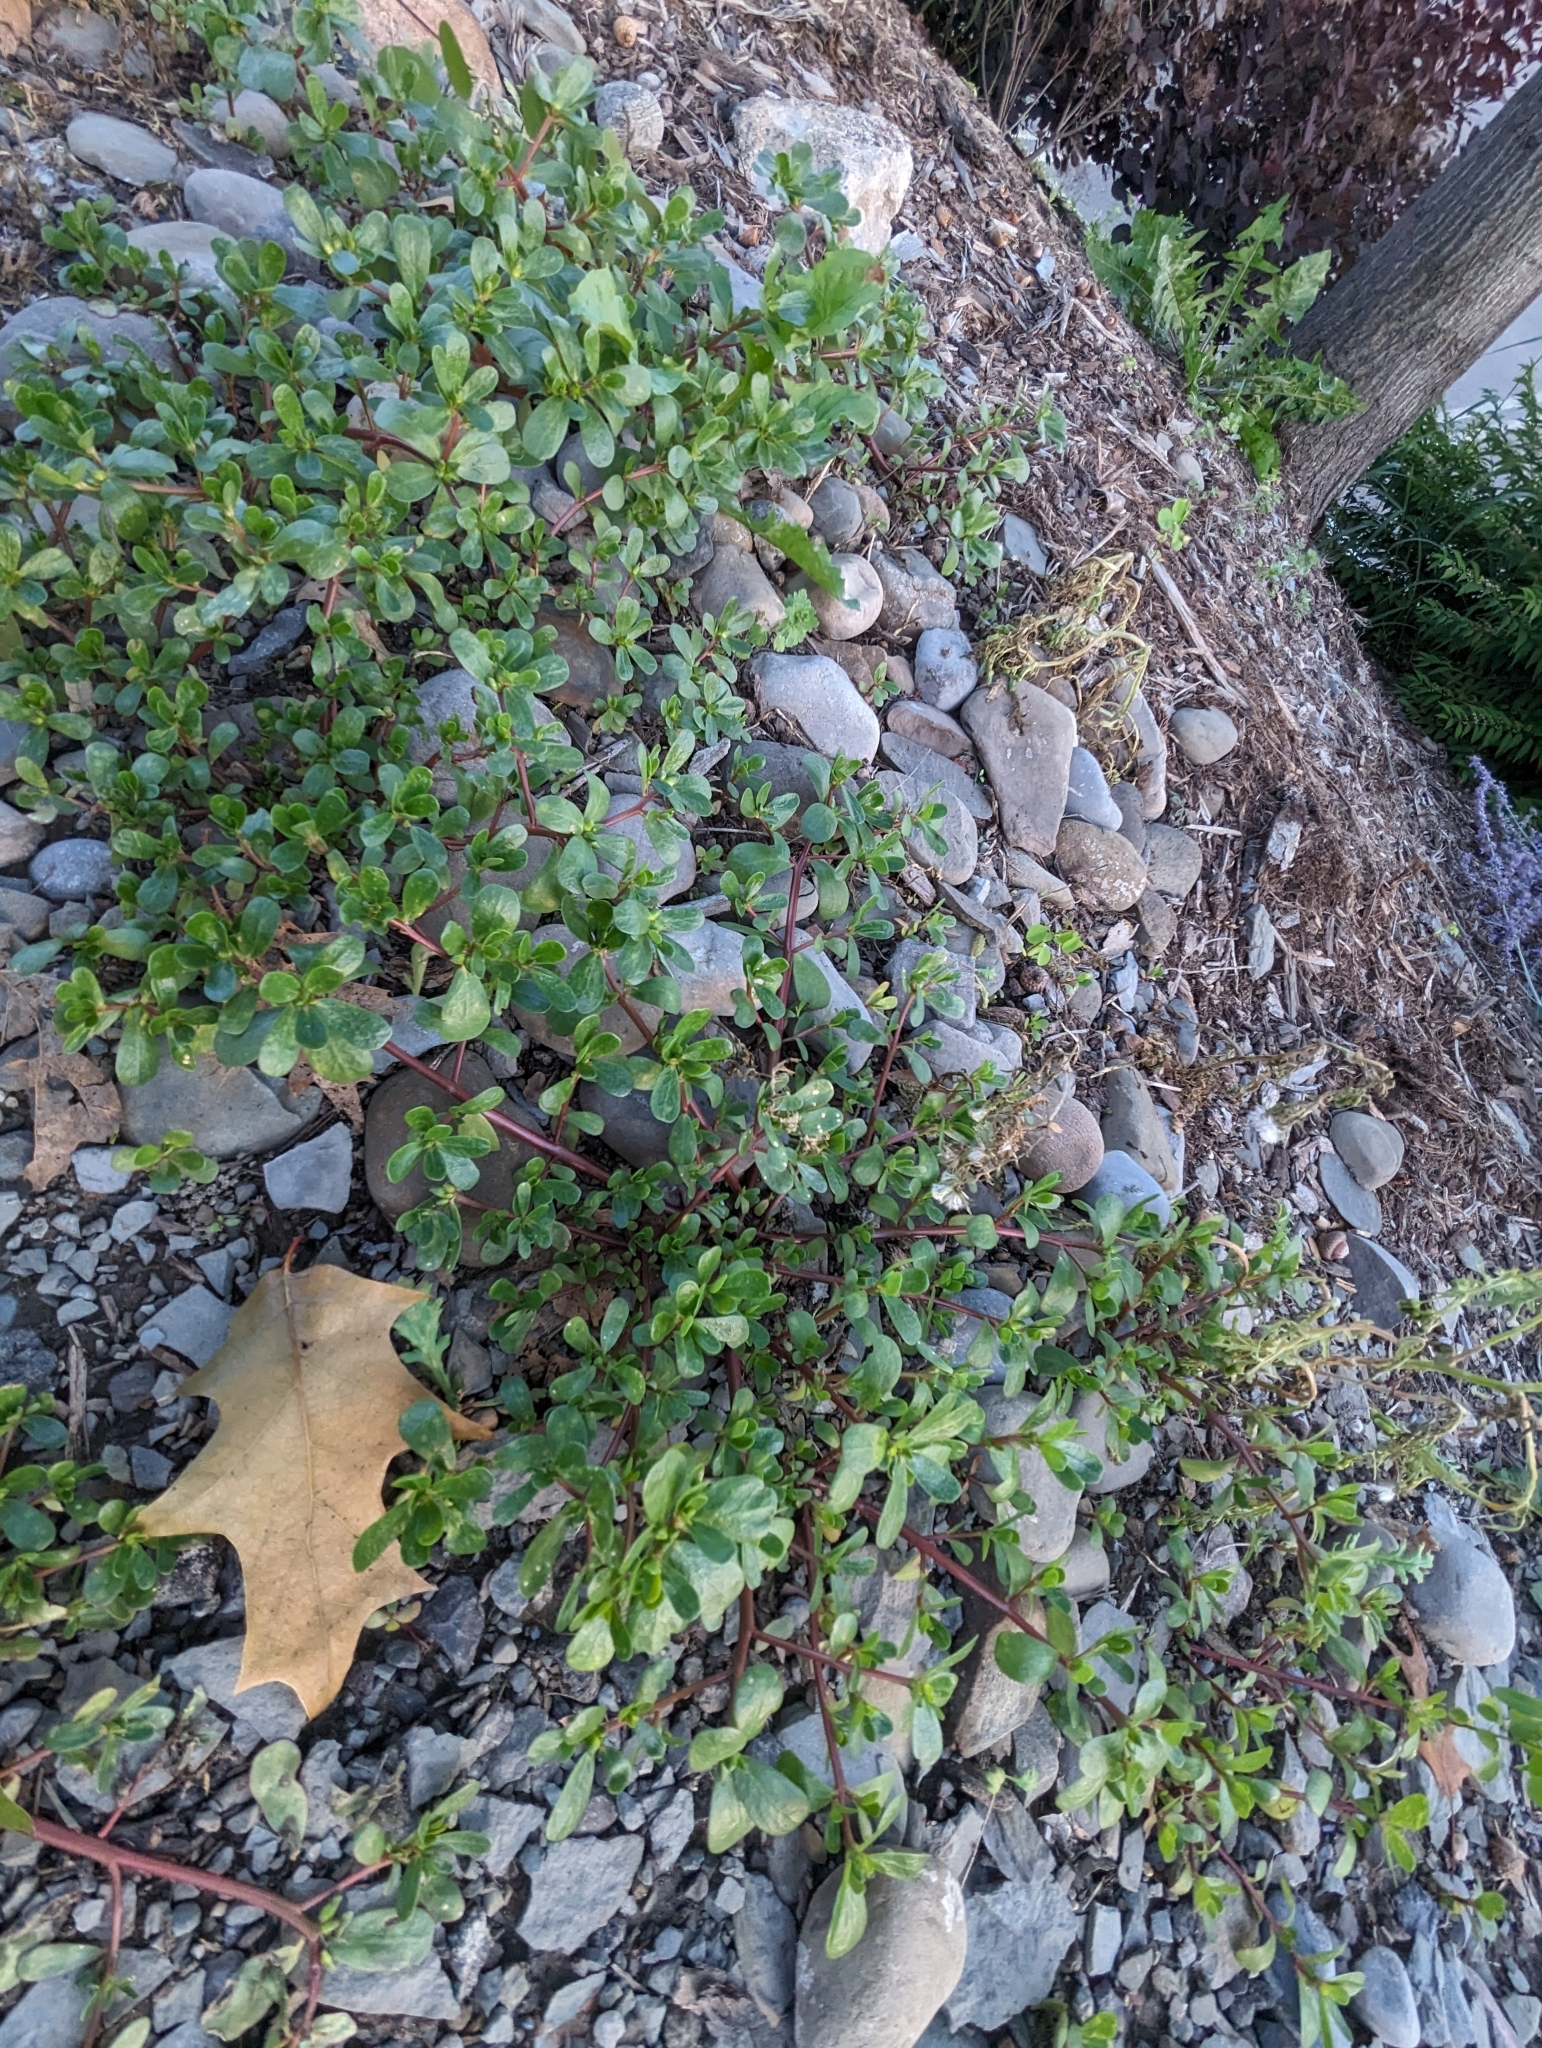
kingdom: Chromista
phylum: Oomycota
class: Peronosporea
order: Albuginales
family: Albuginaceae
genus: Wilsoniana
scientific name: Wilsoniana portulacae
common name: Purslane white rust
